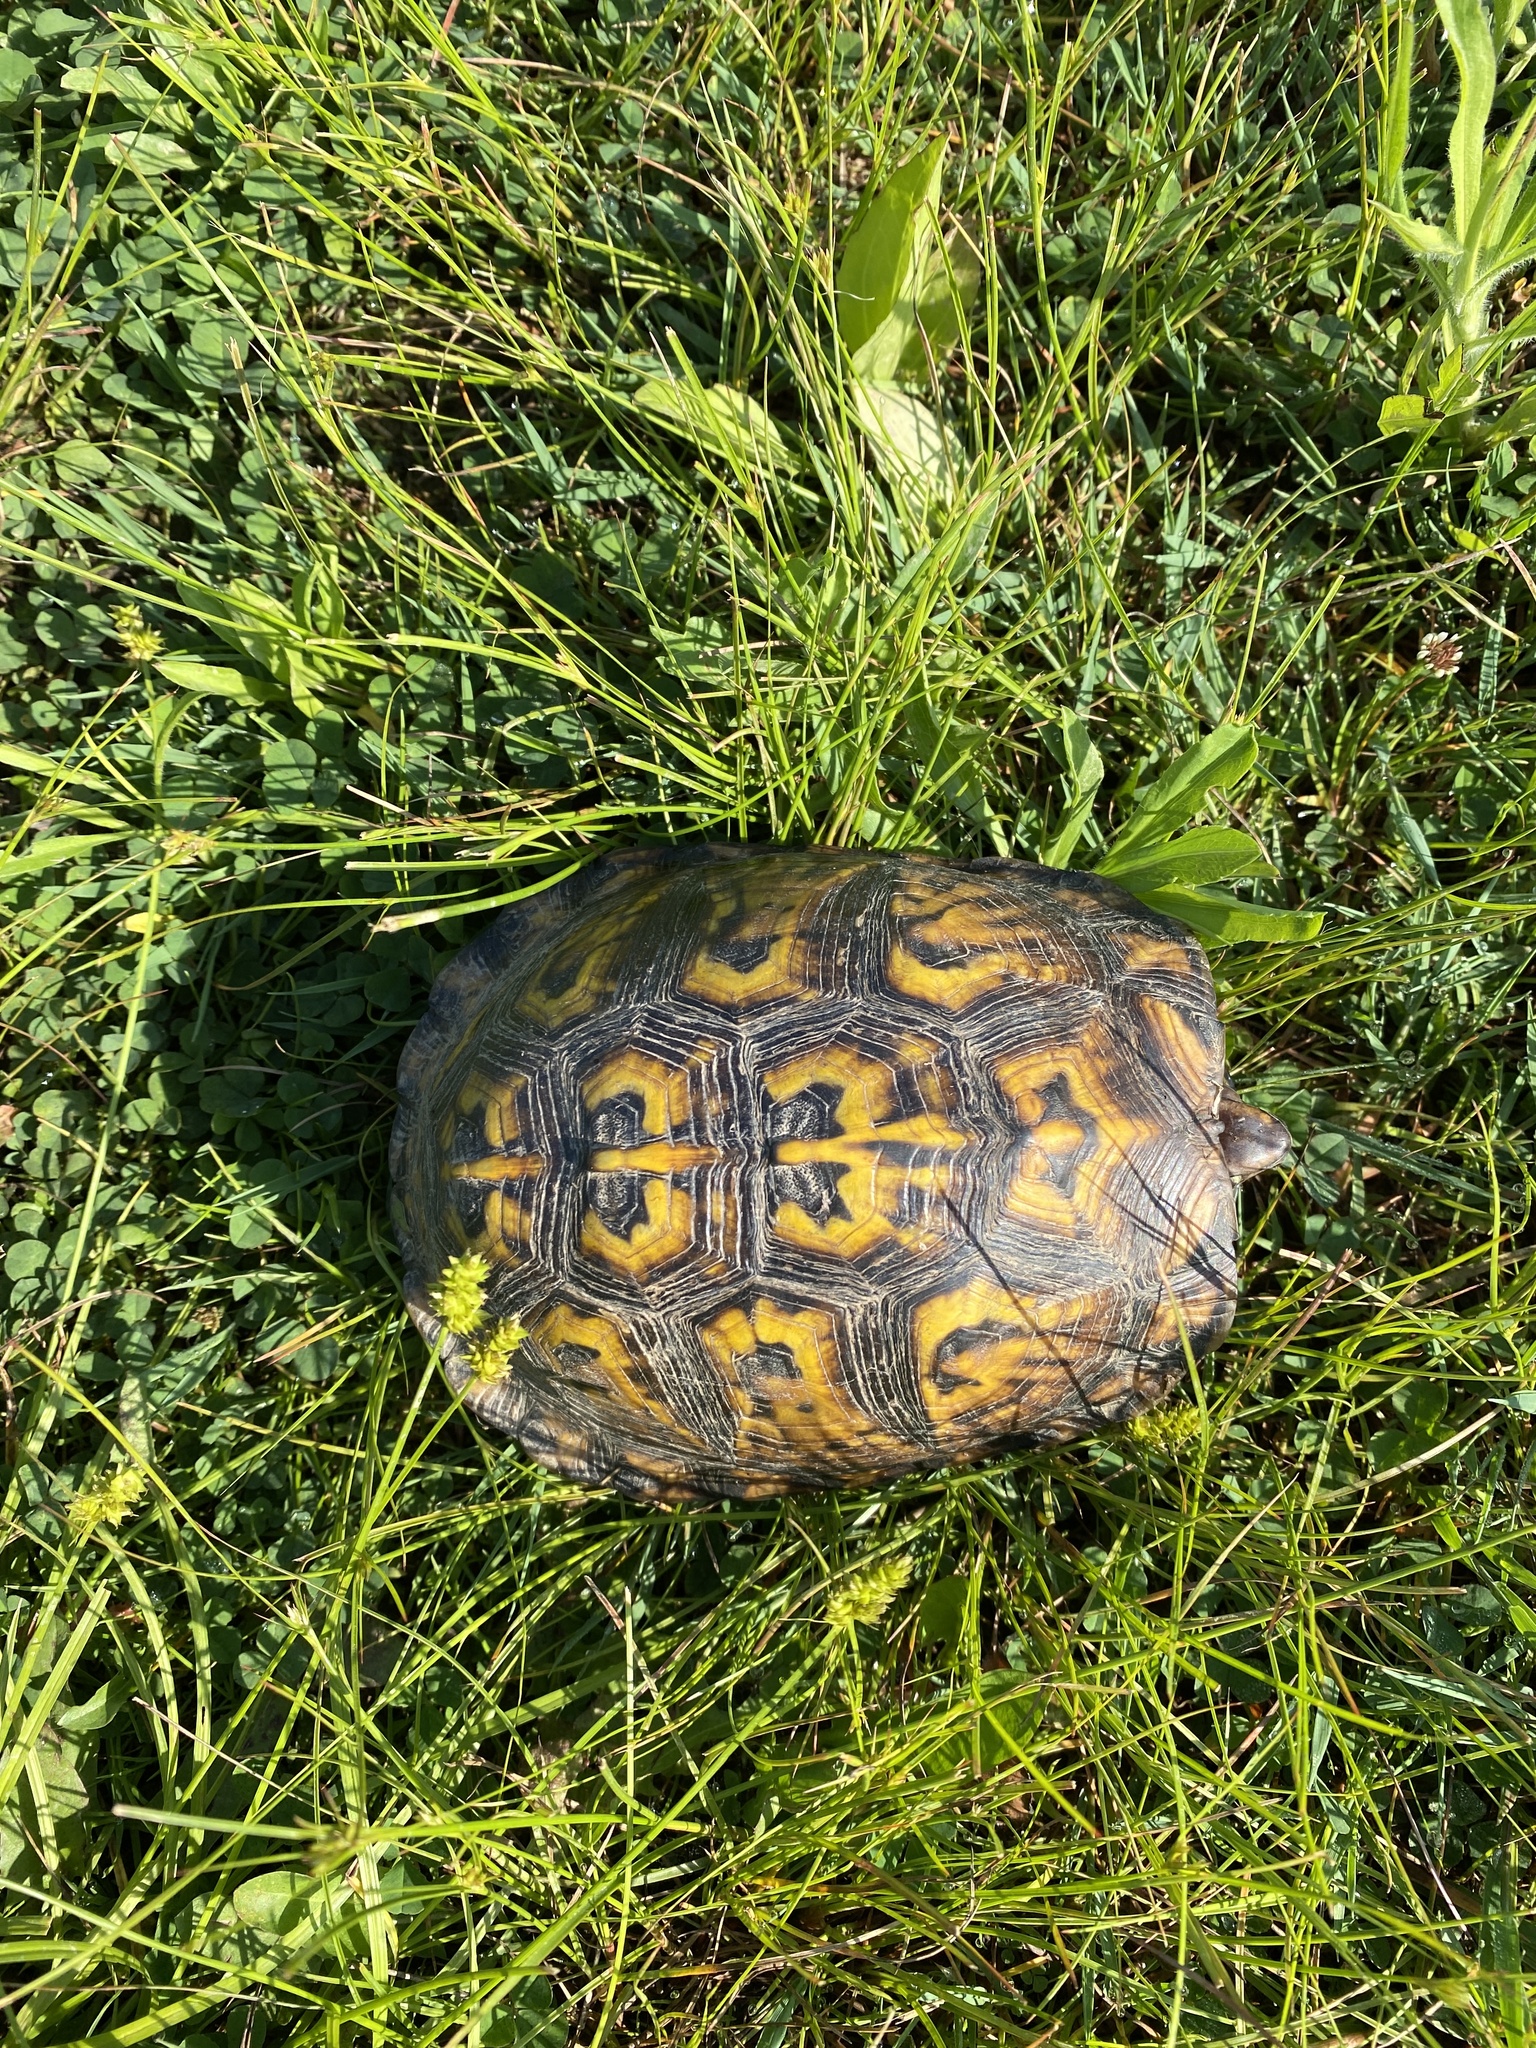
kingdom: Animalia
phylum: Chordata
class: Testudines
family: Emydidae
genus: Terrapene
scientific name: Terrapene carolina
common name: Common box turtle
